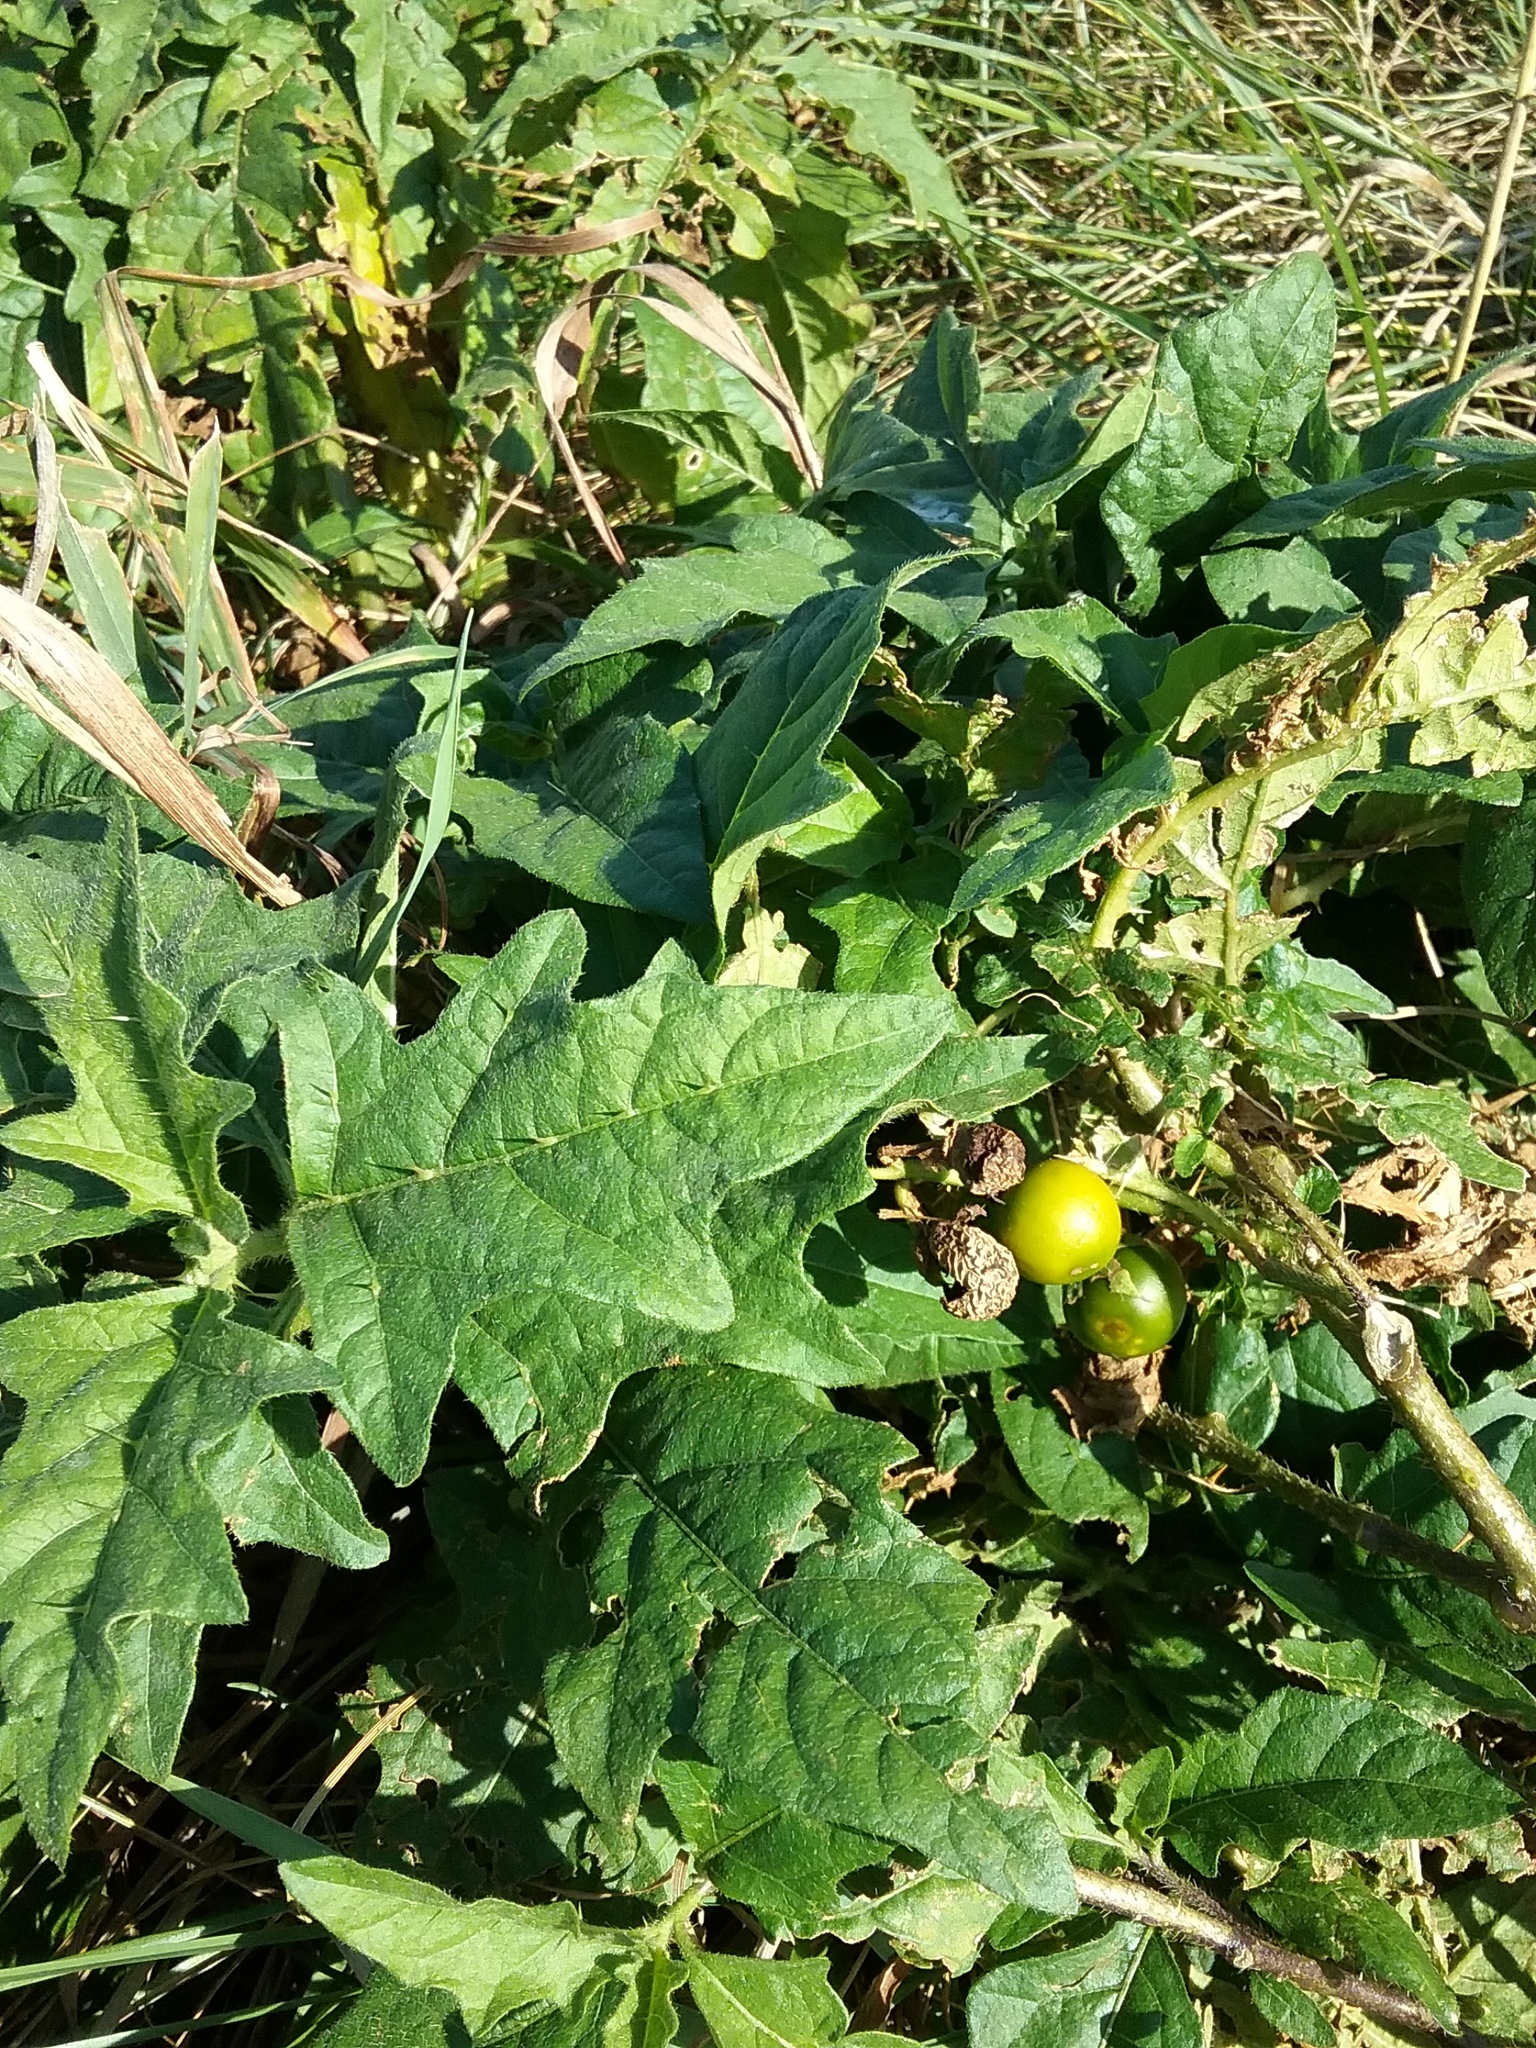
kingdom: Plantae
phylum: Tracheophyta
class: Magnoliopsida
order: Solanales
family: Solanaceae
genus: Solanum
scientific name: Solanum carolinense
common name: Horse-nettle
